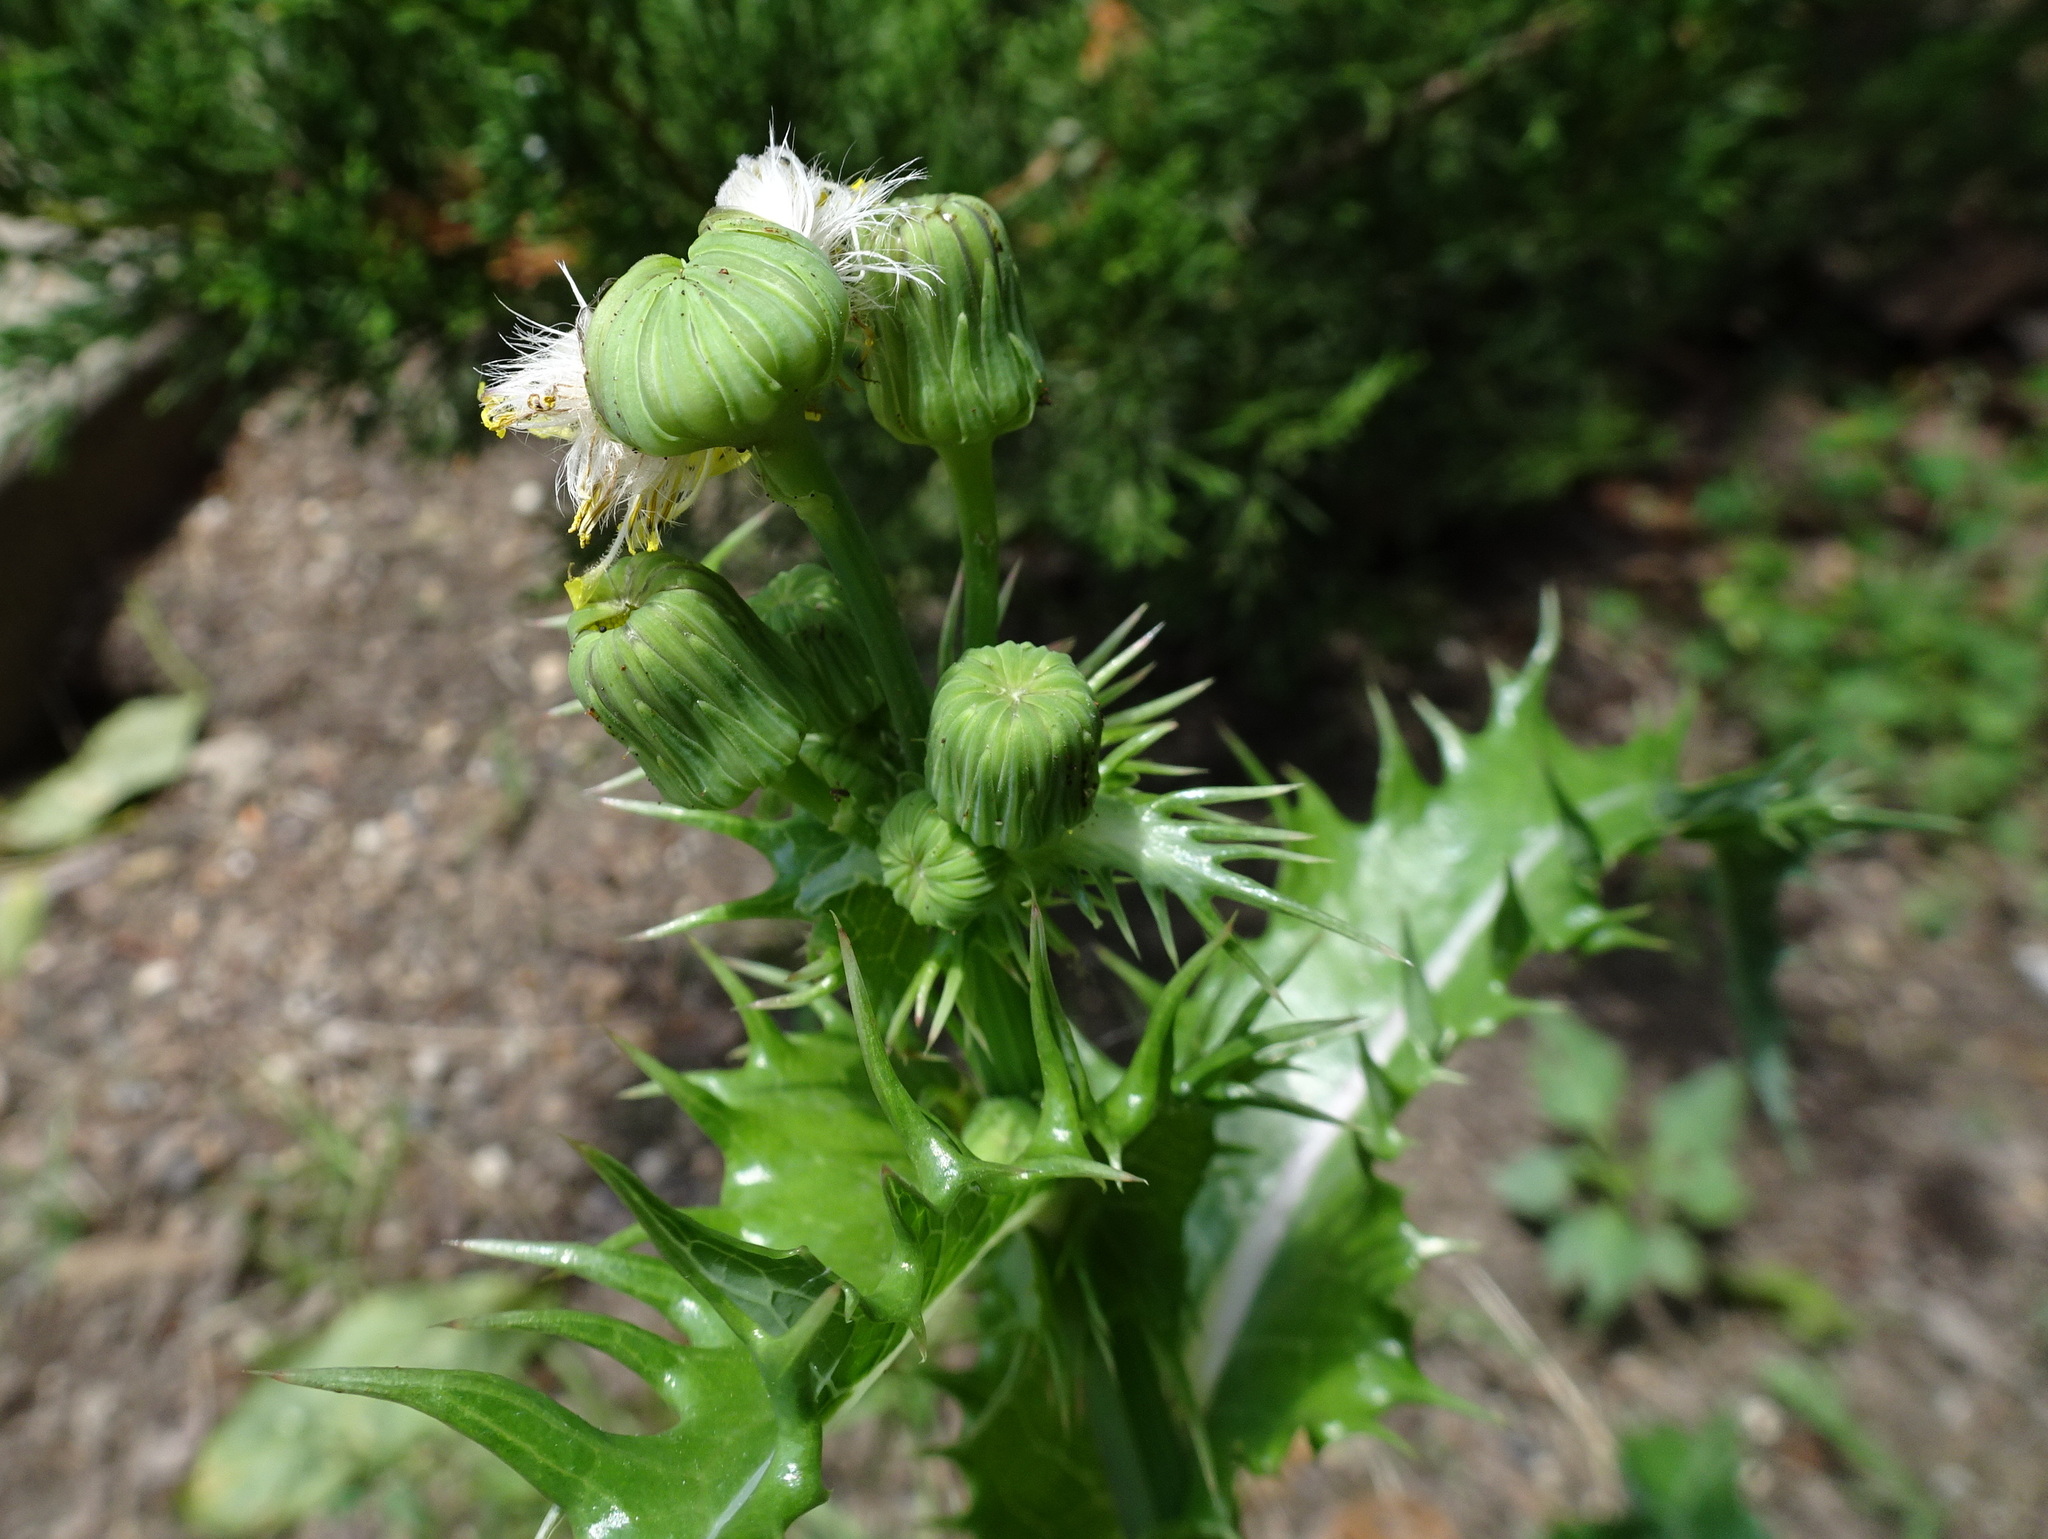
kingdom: Plantae
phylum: Tracheophyta
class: Magnoliopsida
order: Asterales
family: Asteraceae
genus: Sonchus
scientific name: Sonchus asper
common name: Prickly sow-thistle
